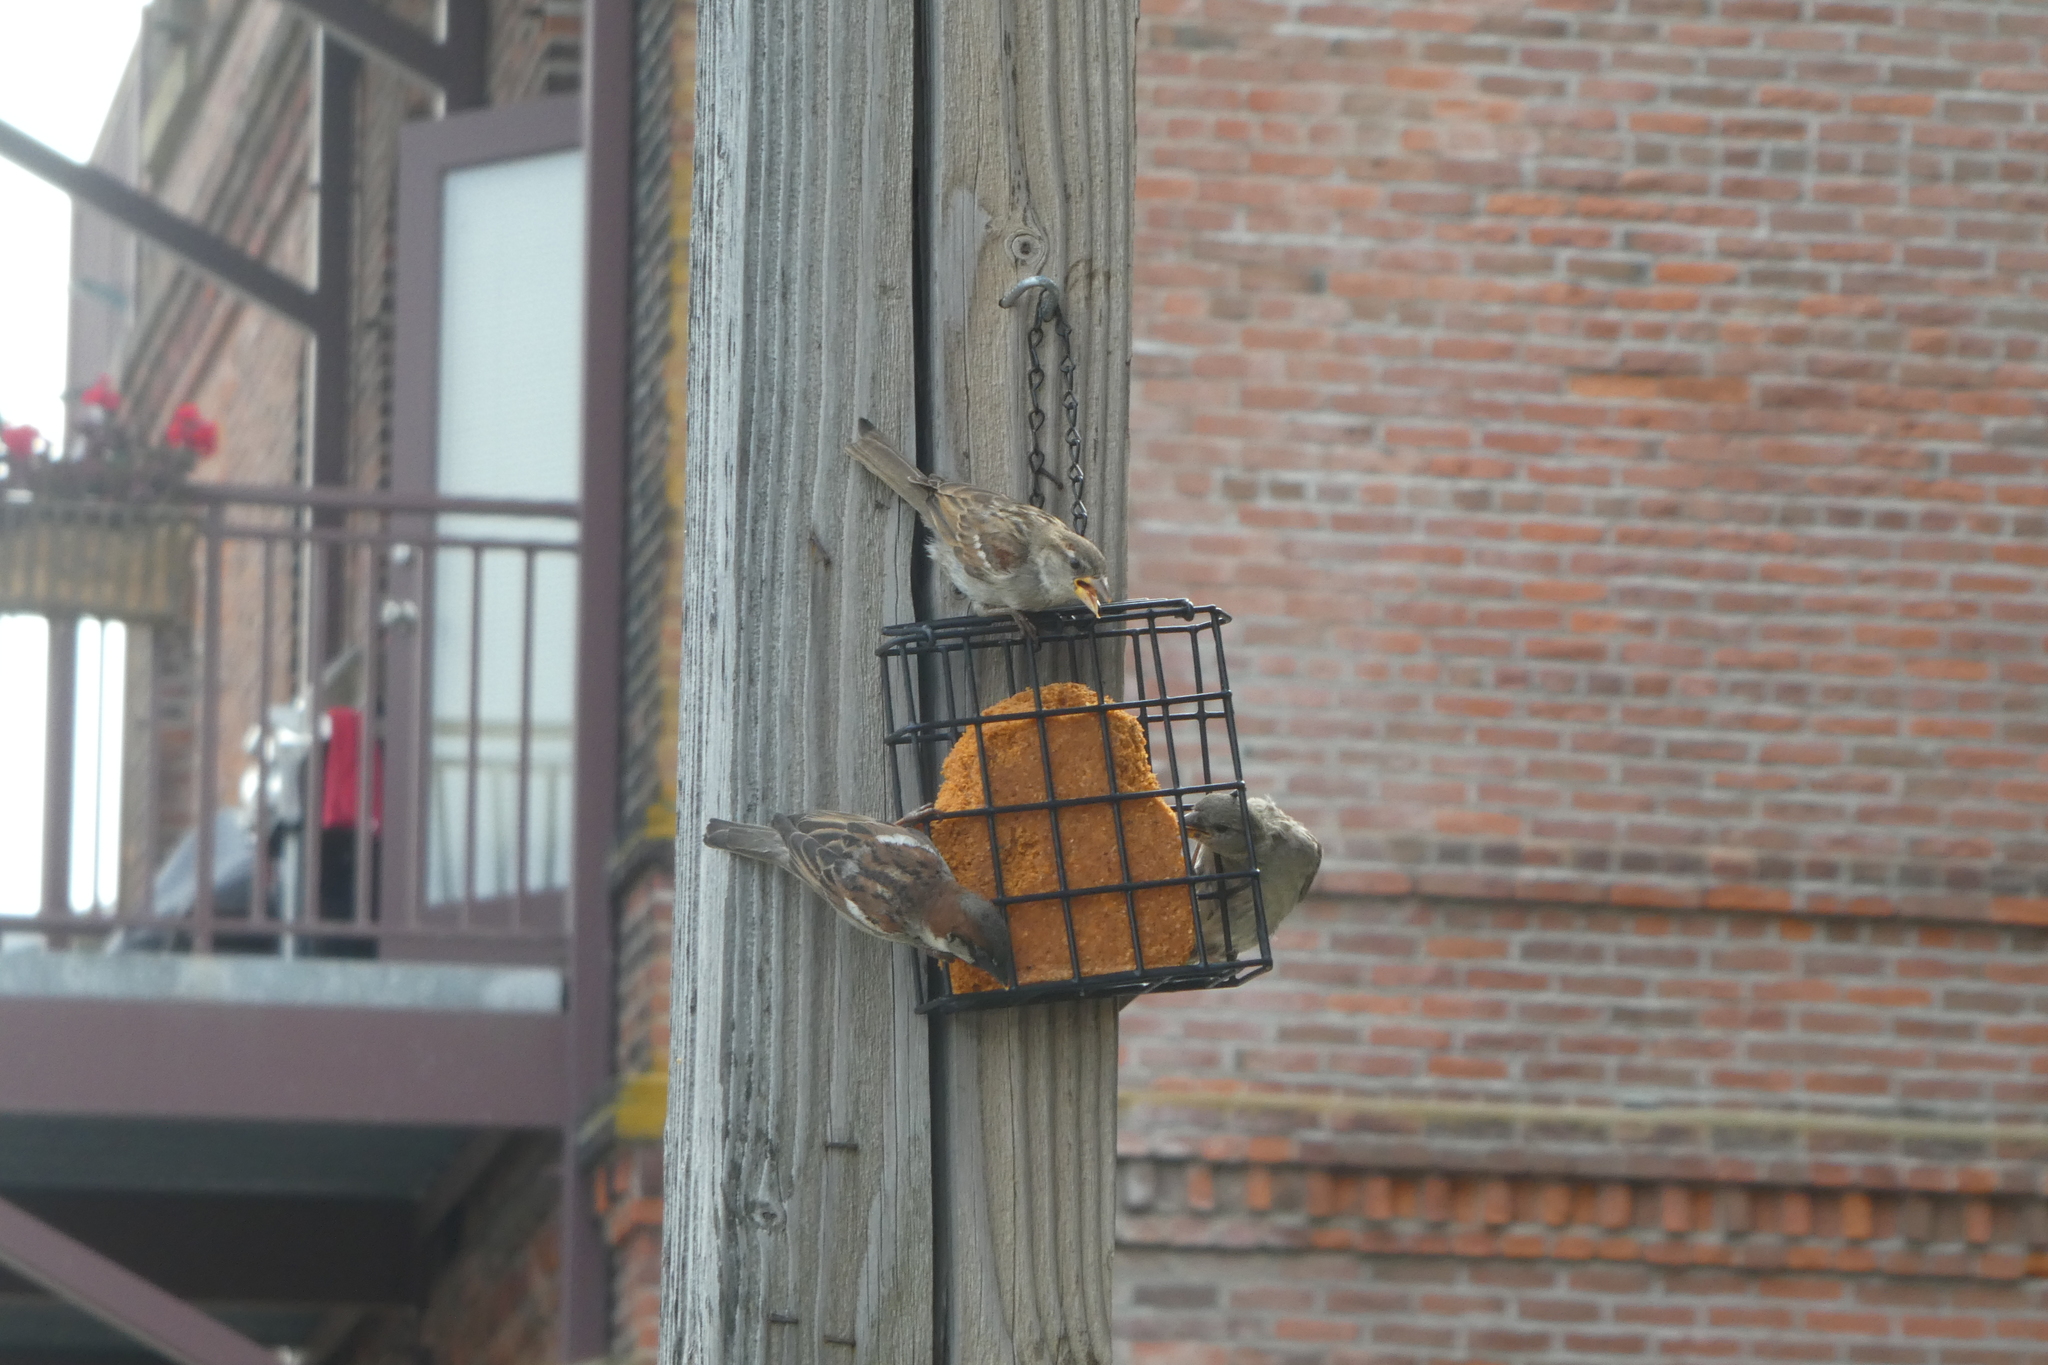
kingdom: Animalia
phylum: Chordata
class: Aves
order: Passeriformes
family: Passeridae
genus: Passer
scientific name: Passer domesticus
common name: House sparrow
